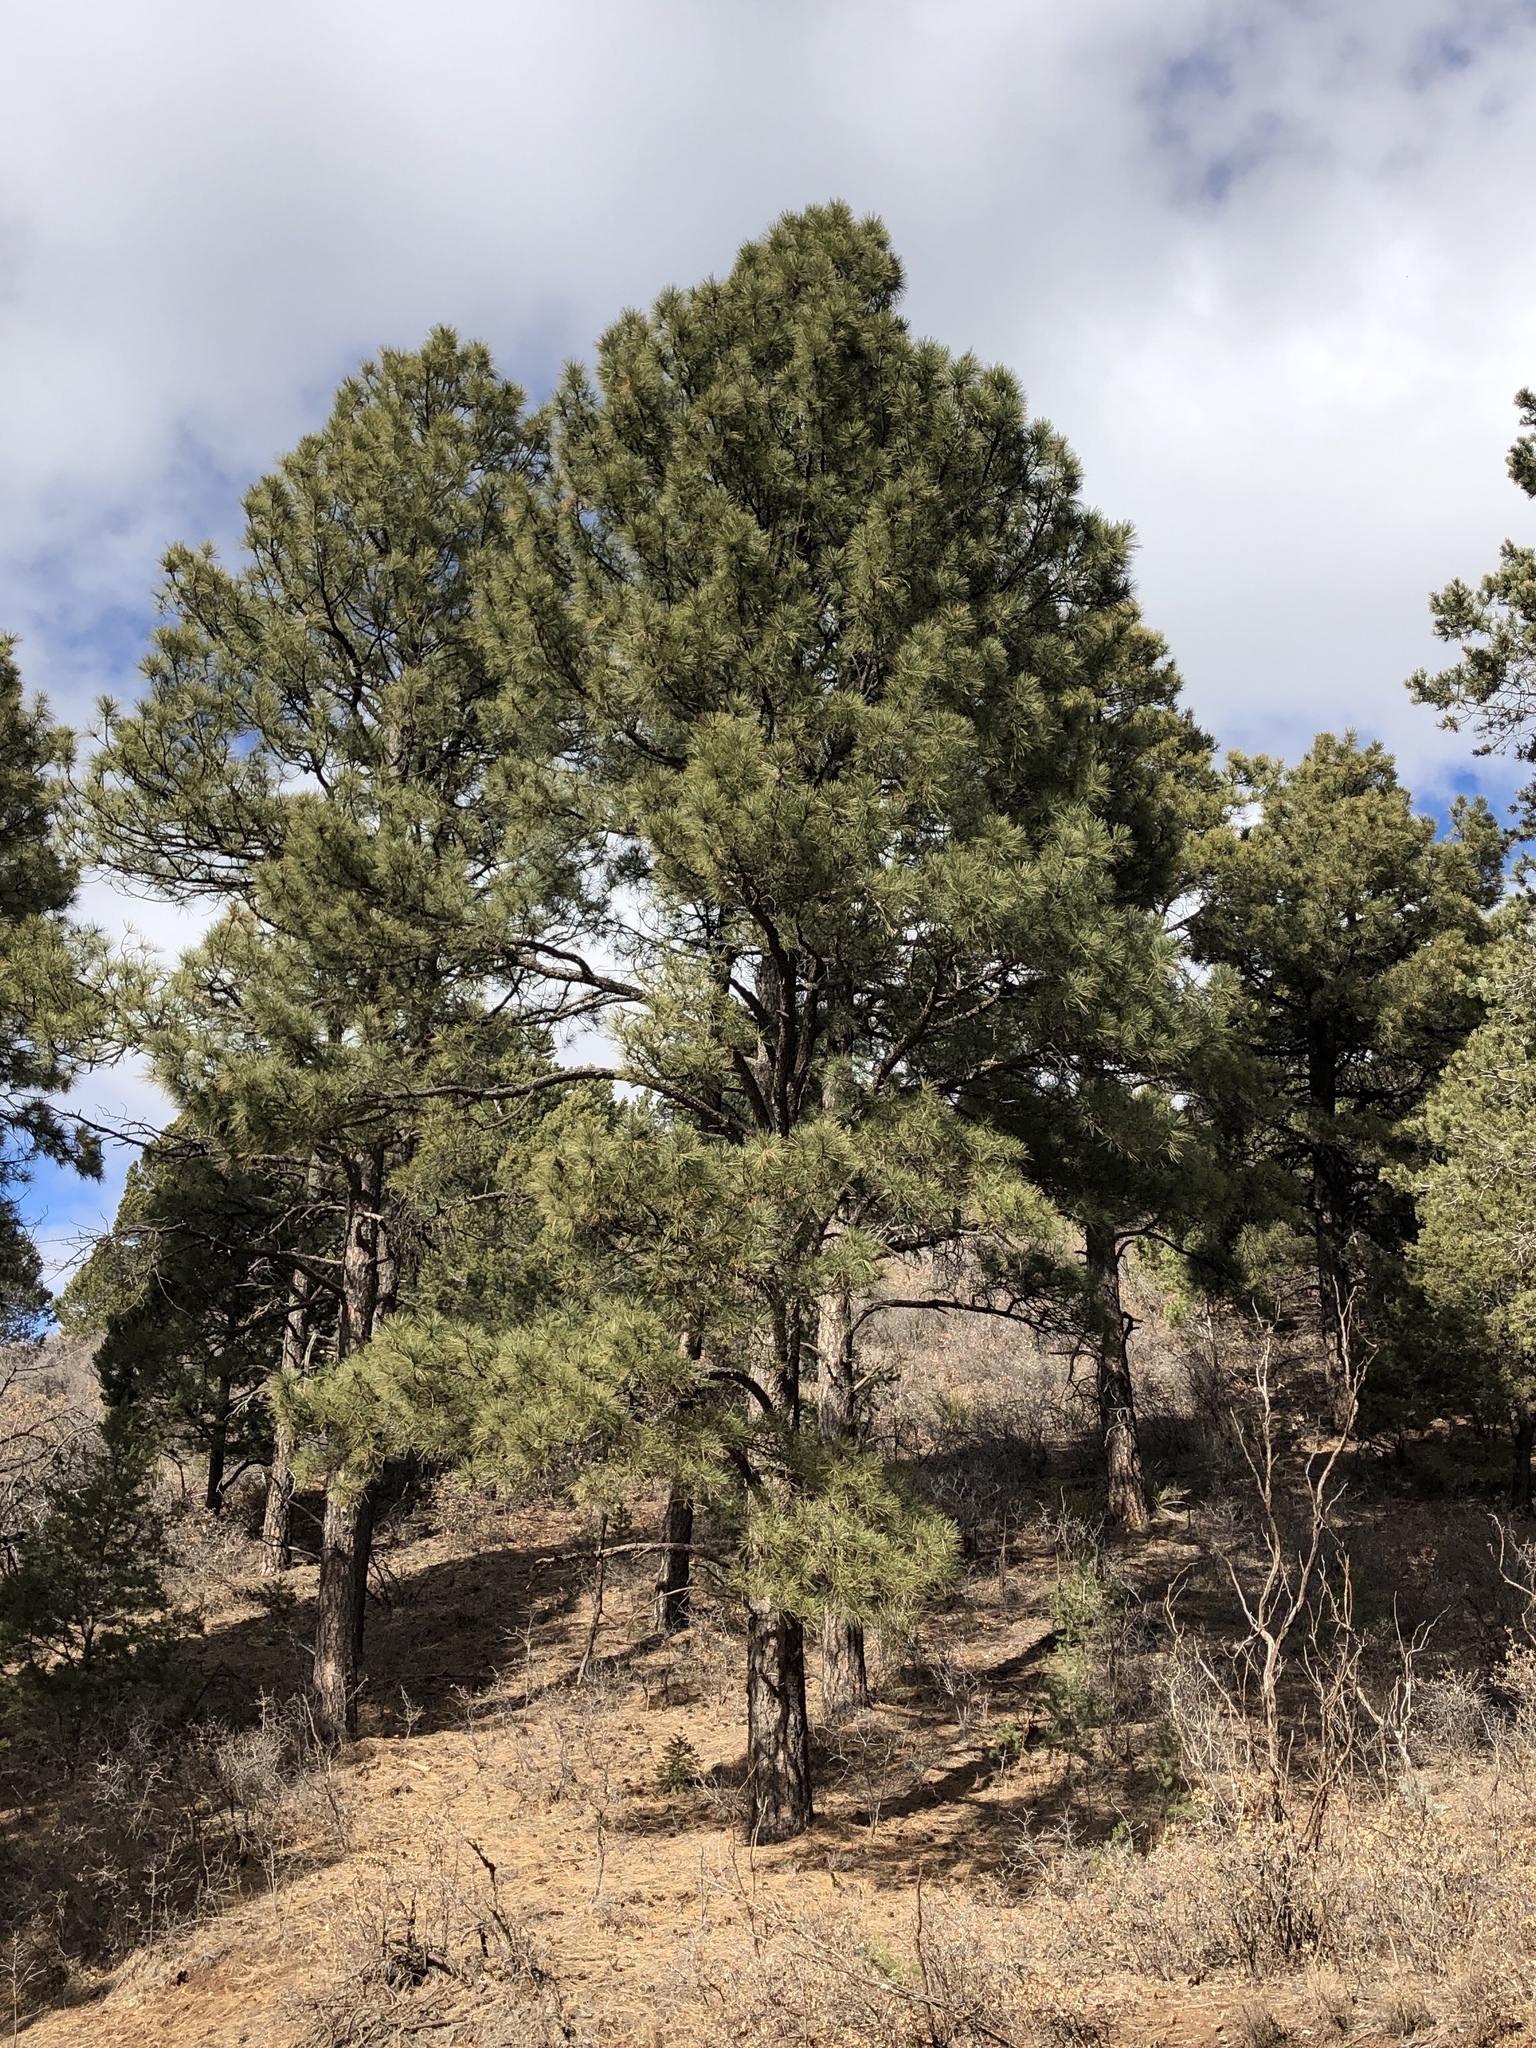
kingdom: Plantae
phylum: Tracheophyta
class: Pinopsida
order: Pinales
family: Pinaceae
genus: Pinus
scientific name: Pinus ponderosa
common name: Western yellow-pine
